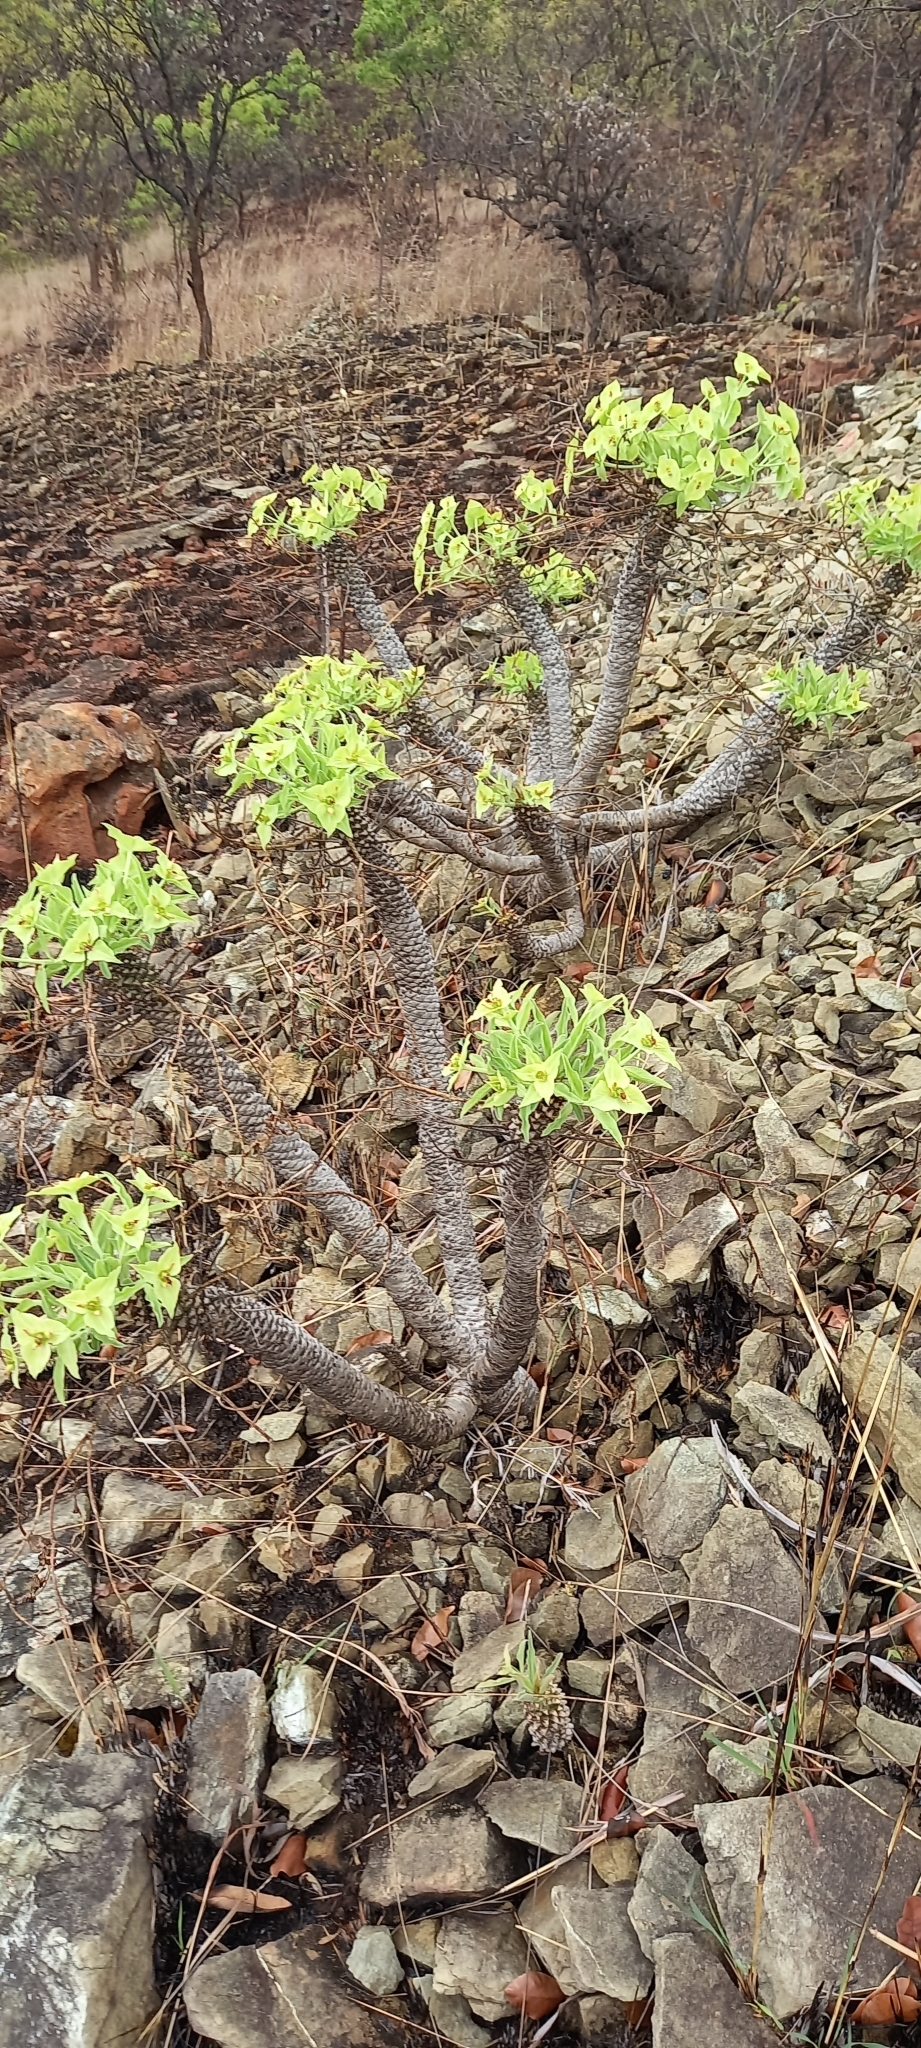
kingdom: Plantae
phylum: Tracheophyta
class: Magnoliopsida
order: Malpighiales
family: Euphorbiaceae
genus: Euphorbia
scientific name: Euphorbia wildii
